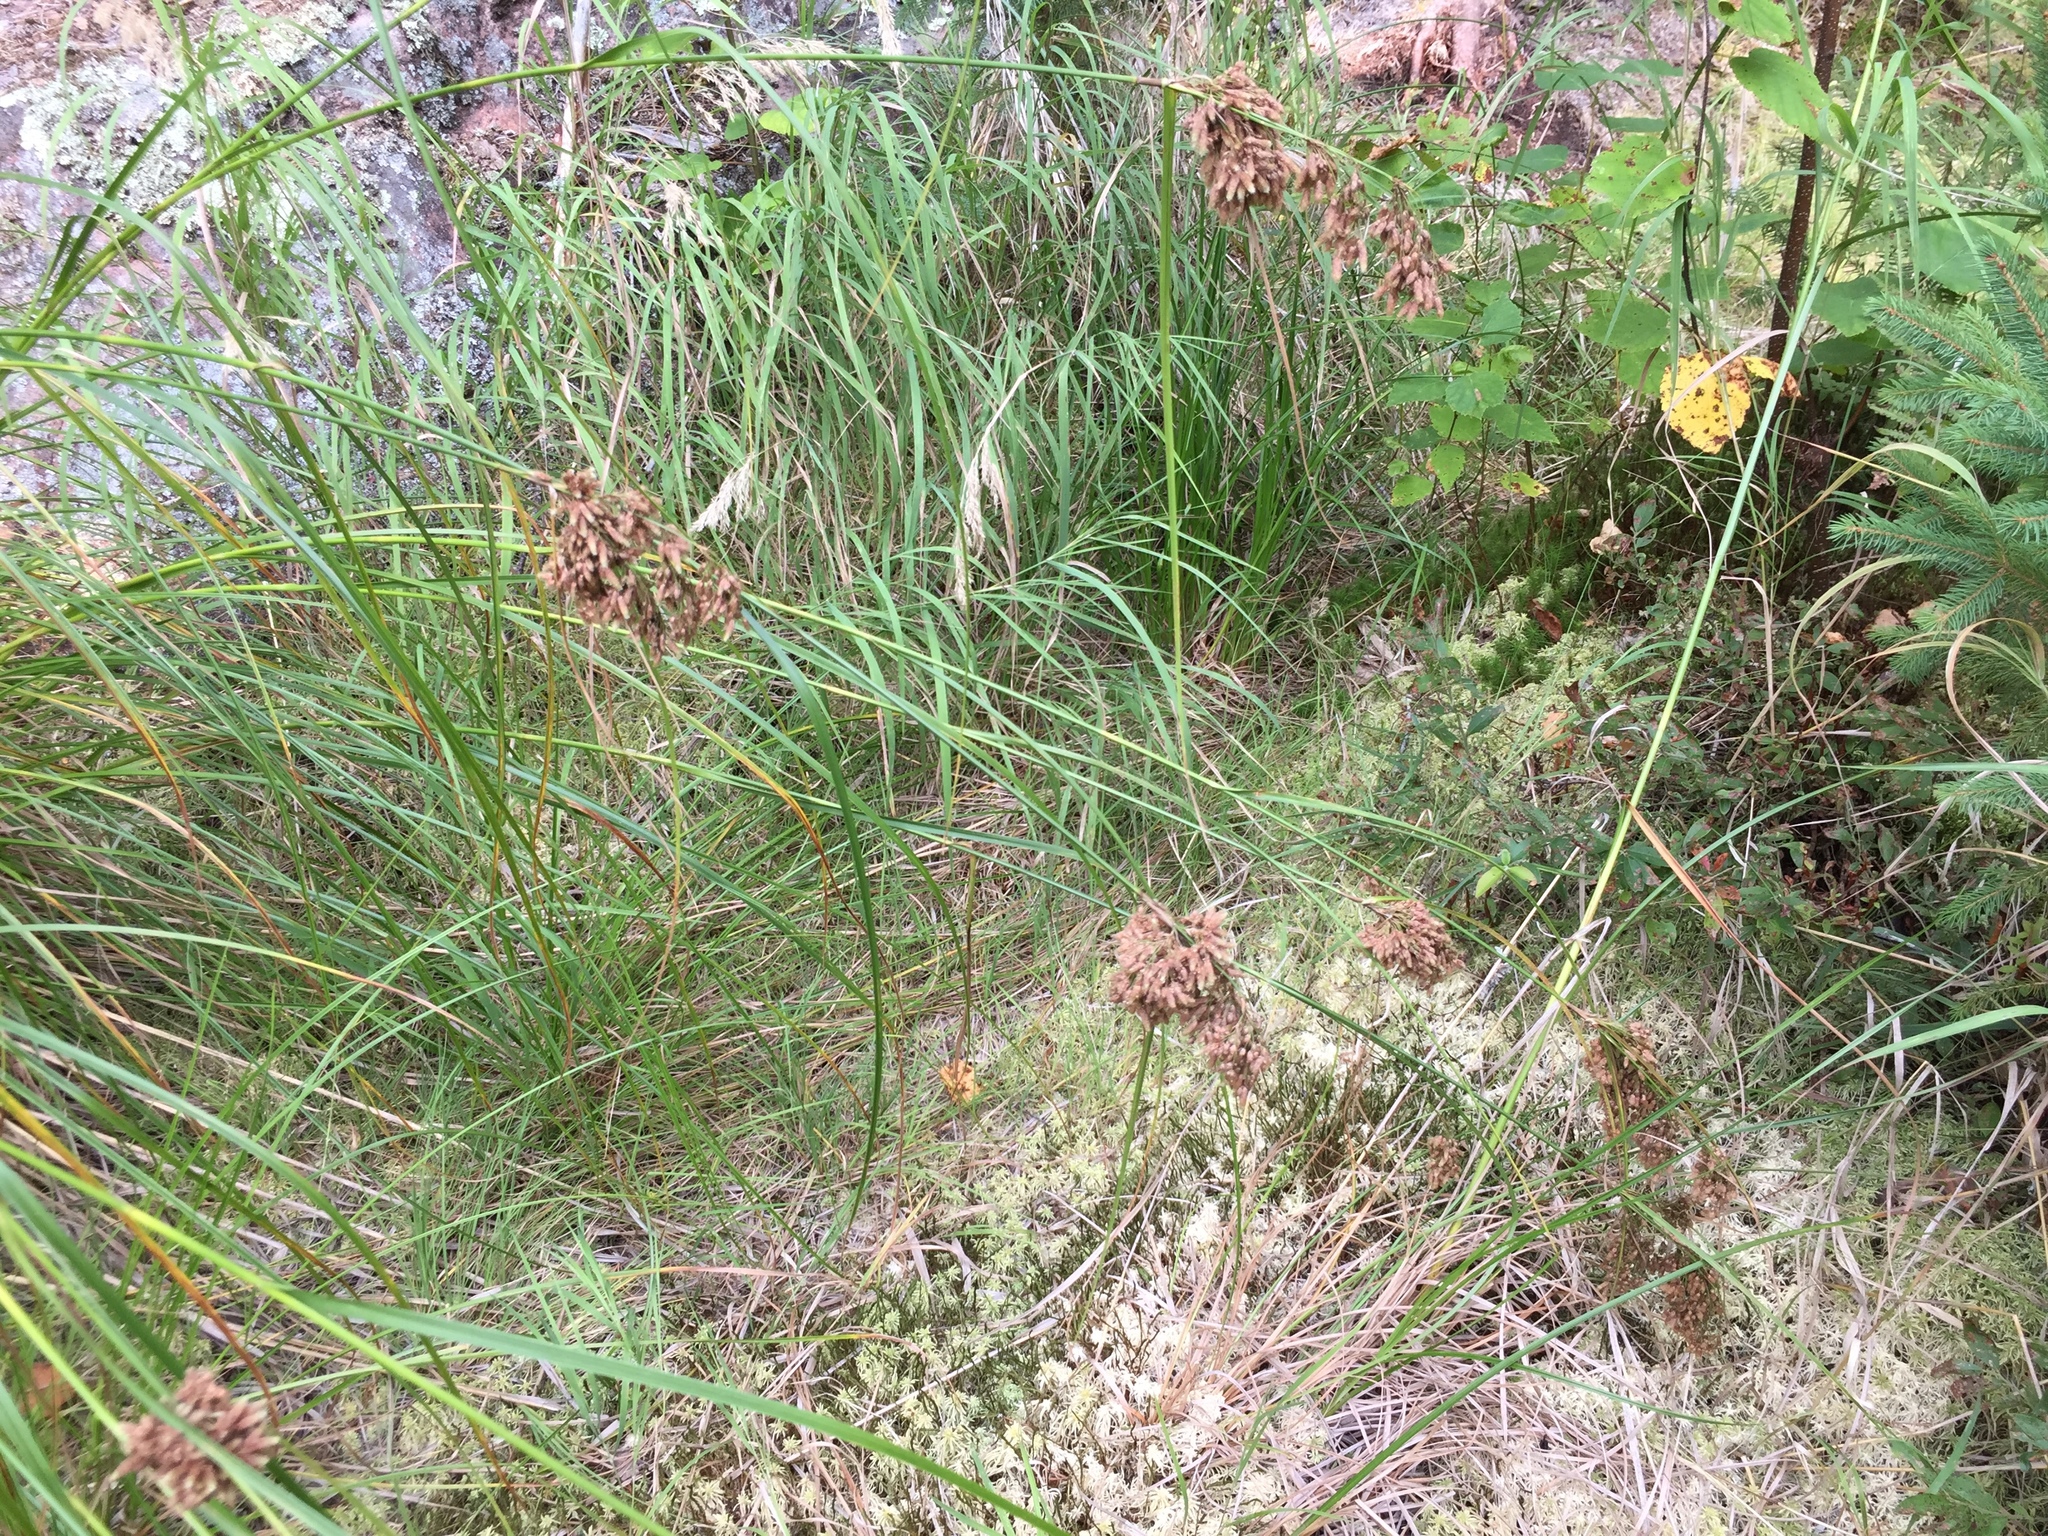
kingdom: Plantae
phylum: Tracheophyta
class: Liliopsida
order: Poales
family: Cyperaceae
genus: Scirpus
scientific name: Scirpus cyperinus
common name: Black-sheathed bulrush
